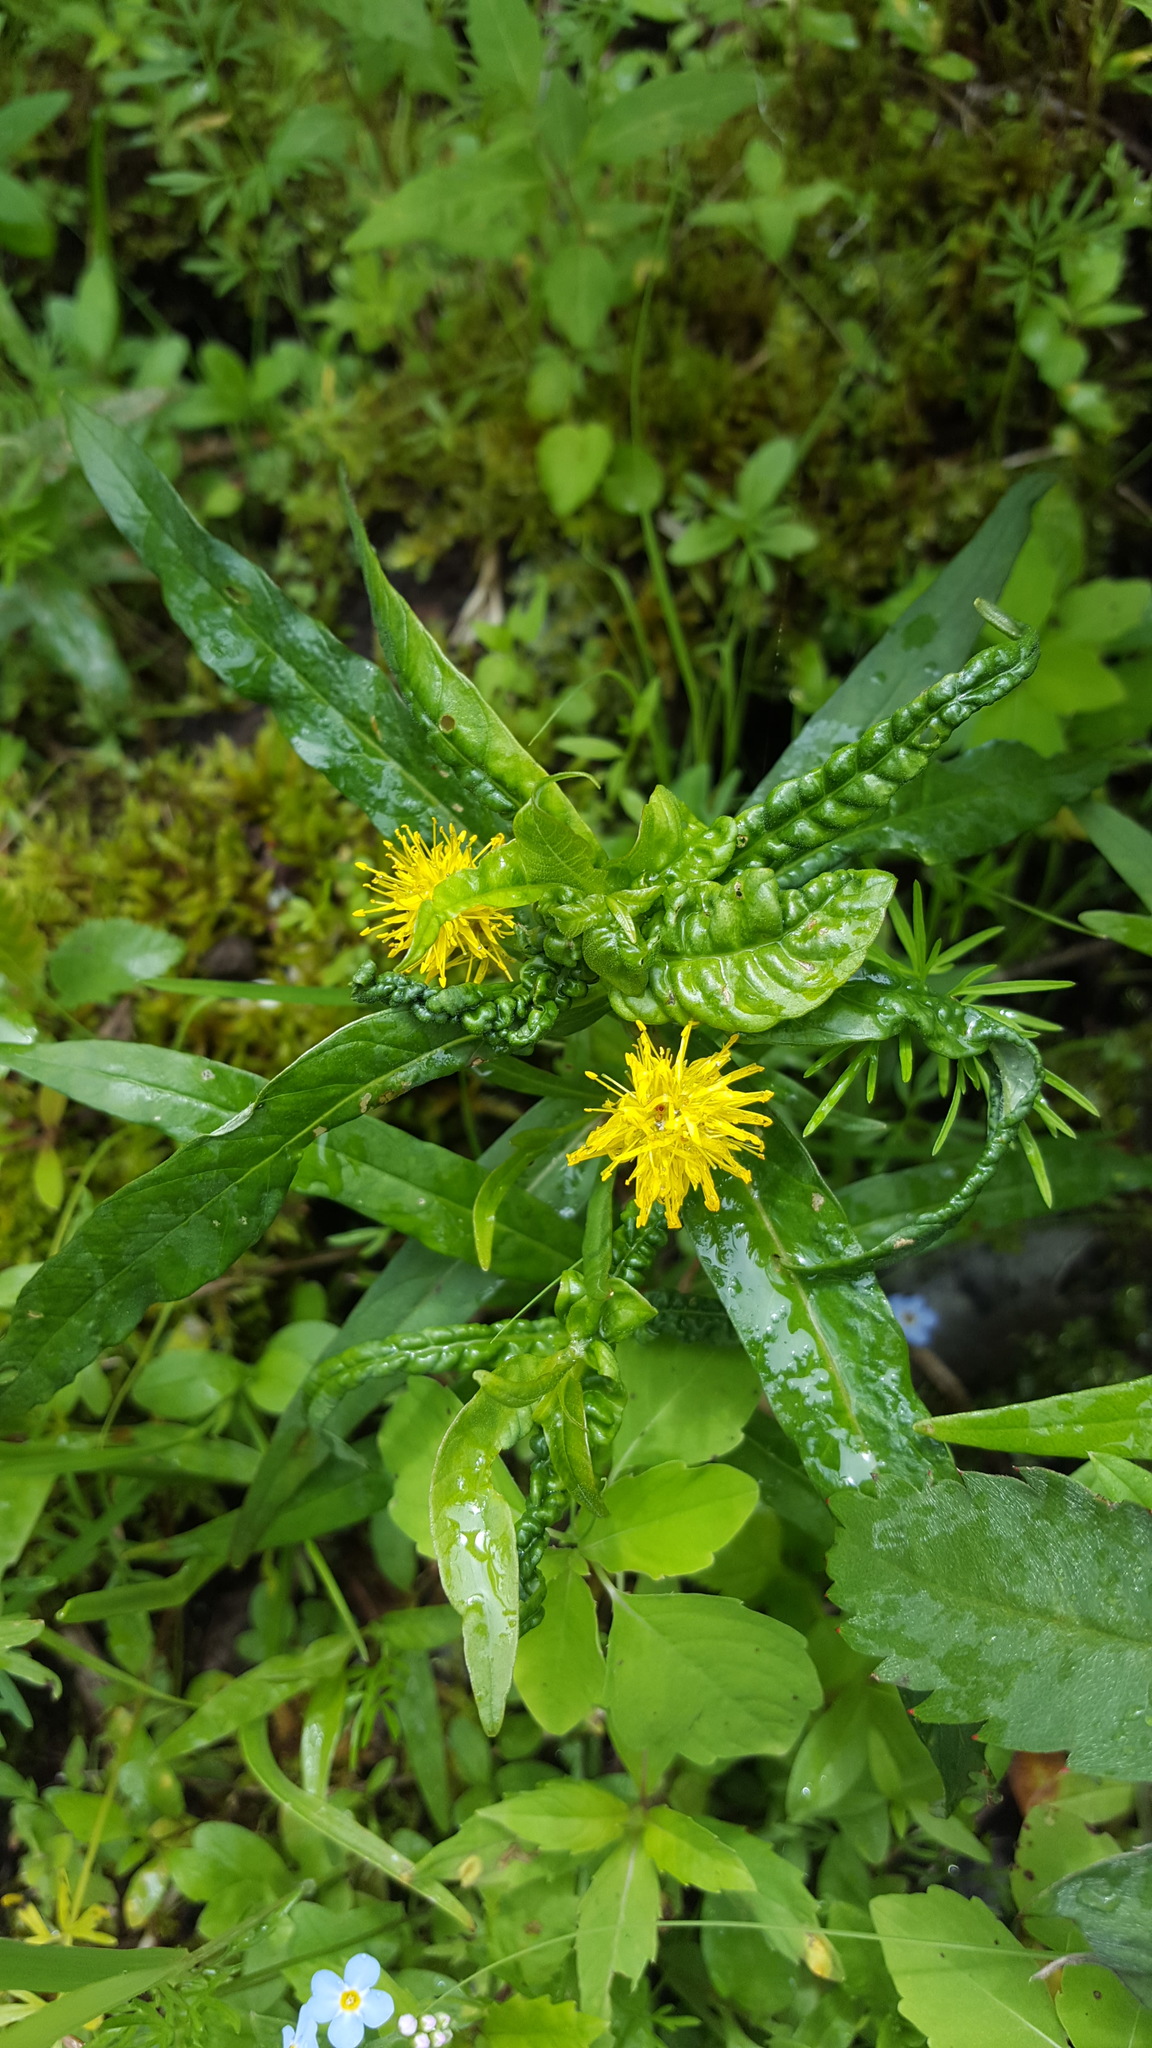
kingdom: Plantae
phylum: Tracheophyta
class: Magnoliopsida
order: Ericales
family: Primulaceae
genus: Lysimachia
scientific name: Lysimachia thyrsiflora
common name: Tufted loosestrife
